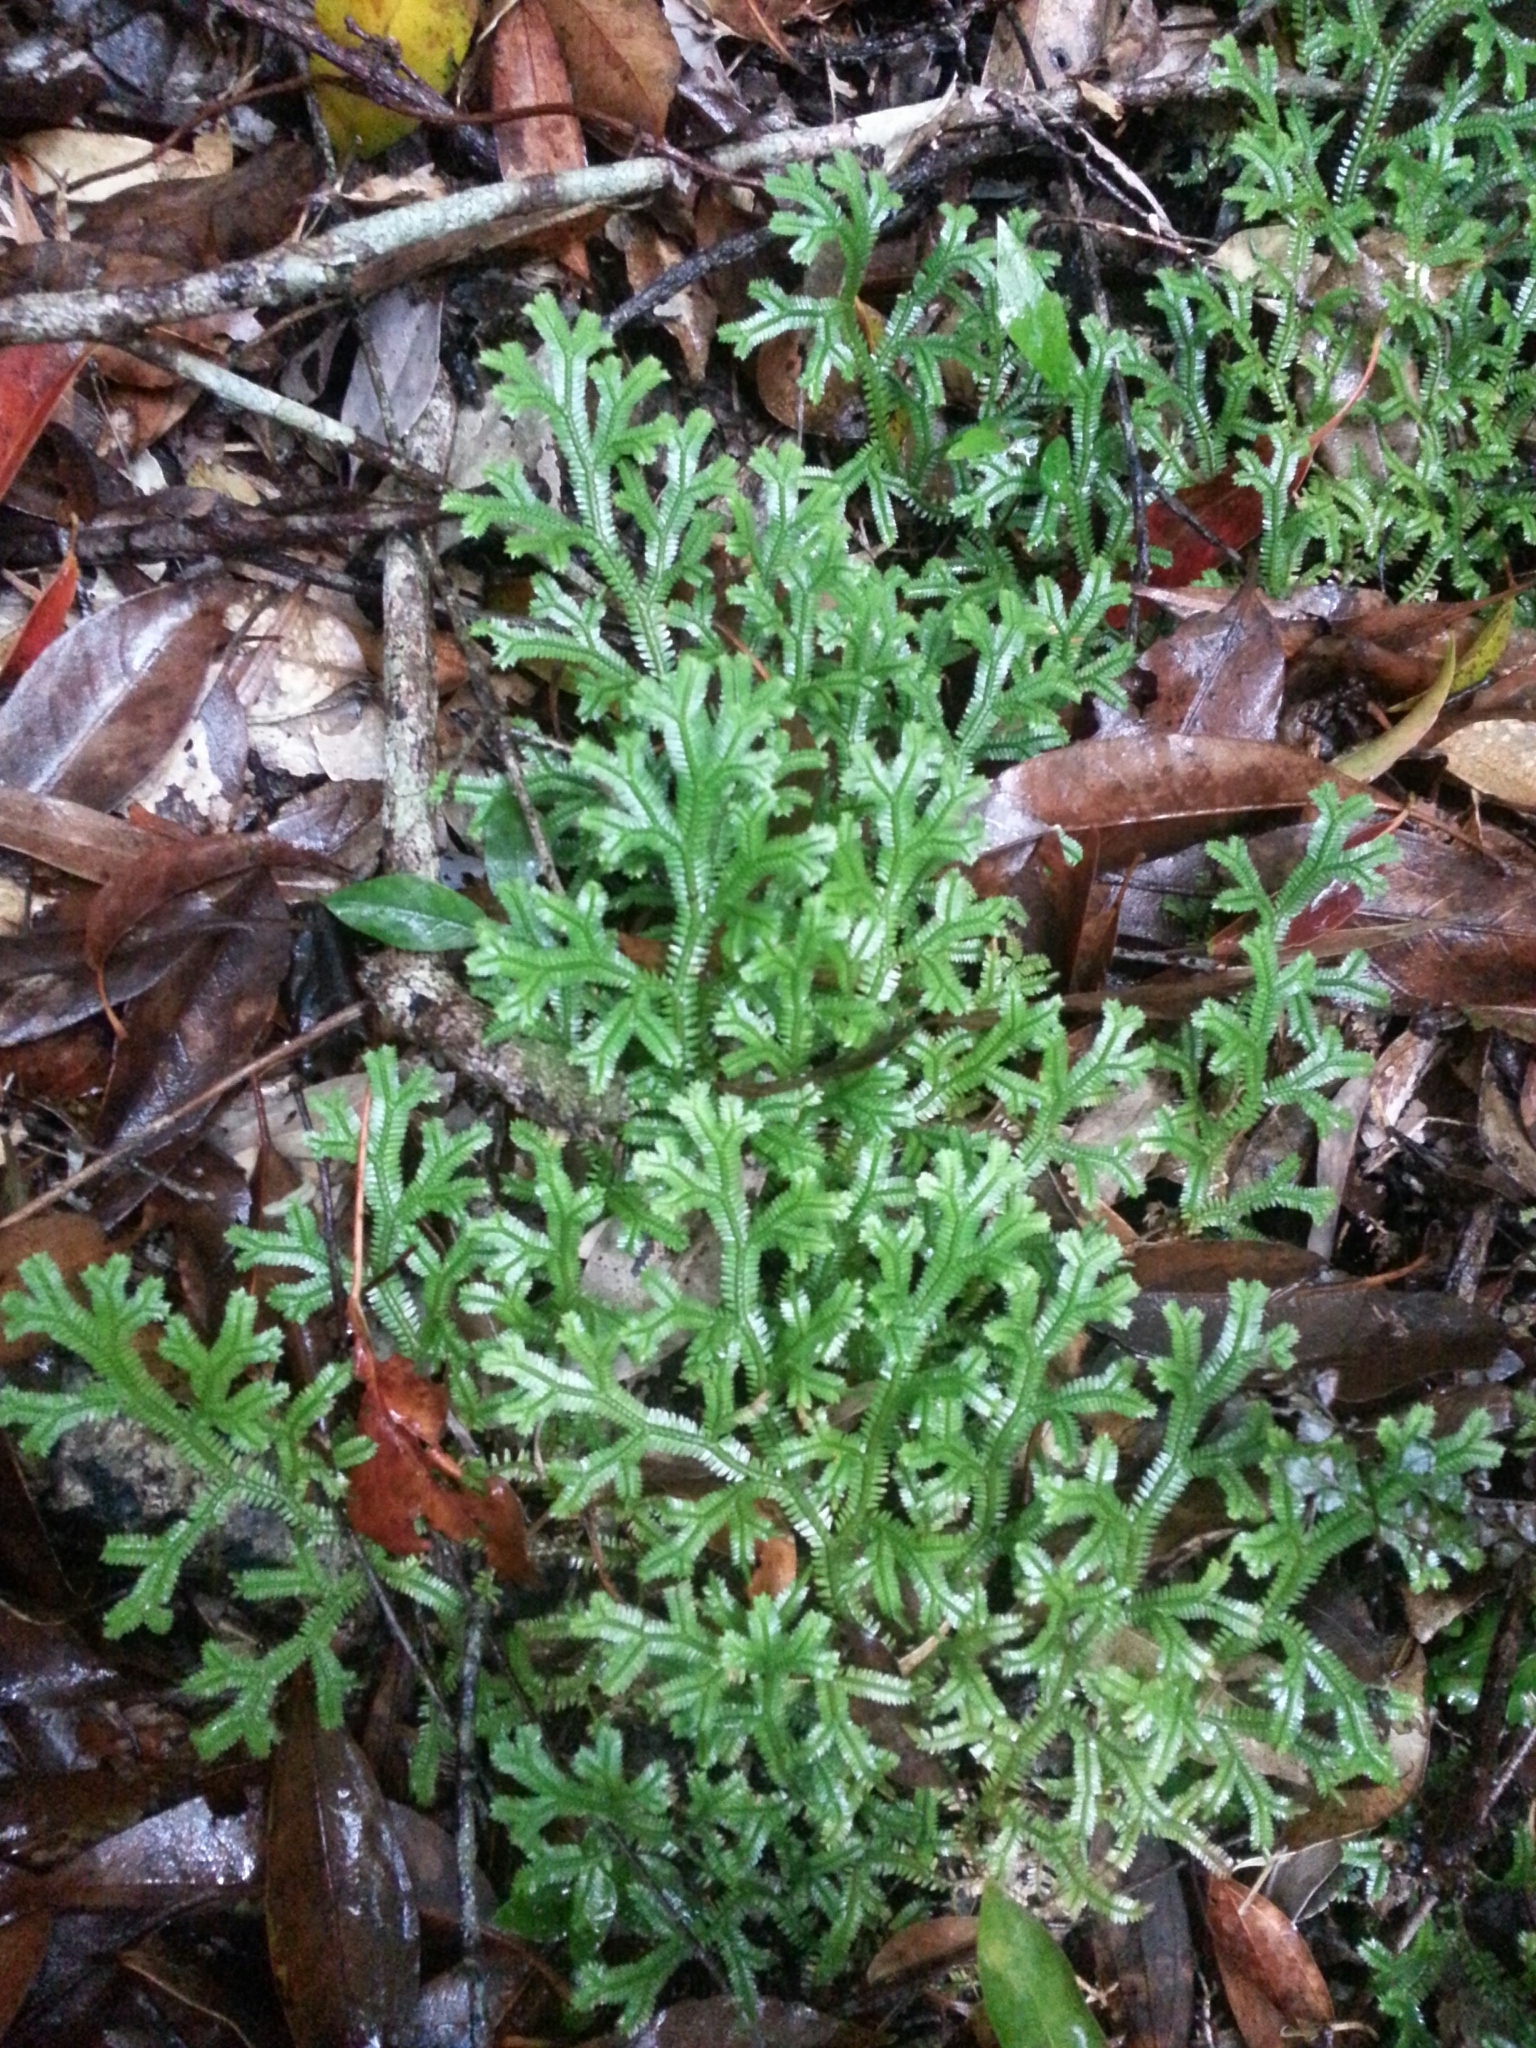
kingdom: Plantae
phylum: Tracheophyta
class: Lycopodiopsida
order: Selaginellales
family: Selaginellaceae
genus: Selaginella
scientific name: Selaginella doederleinii
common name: Greater selaginella
